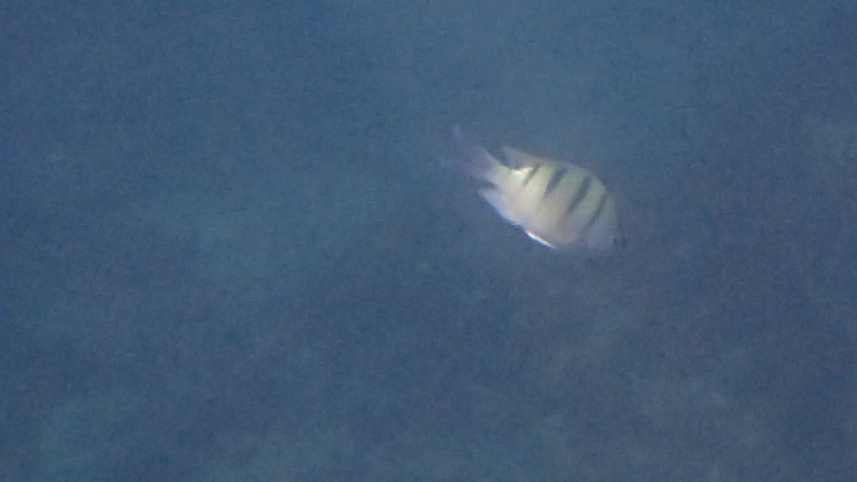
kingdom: Animalia
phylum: Chordata
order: Perciformes
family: Pomacentridae
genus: Abudefduf
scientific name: Abudefduf abdominalis
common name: Green damselfish
